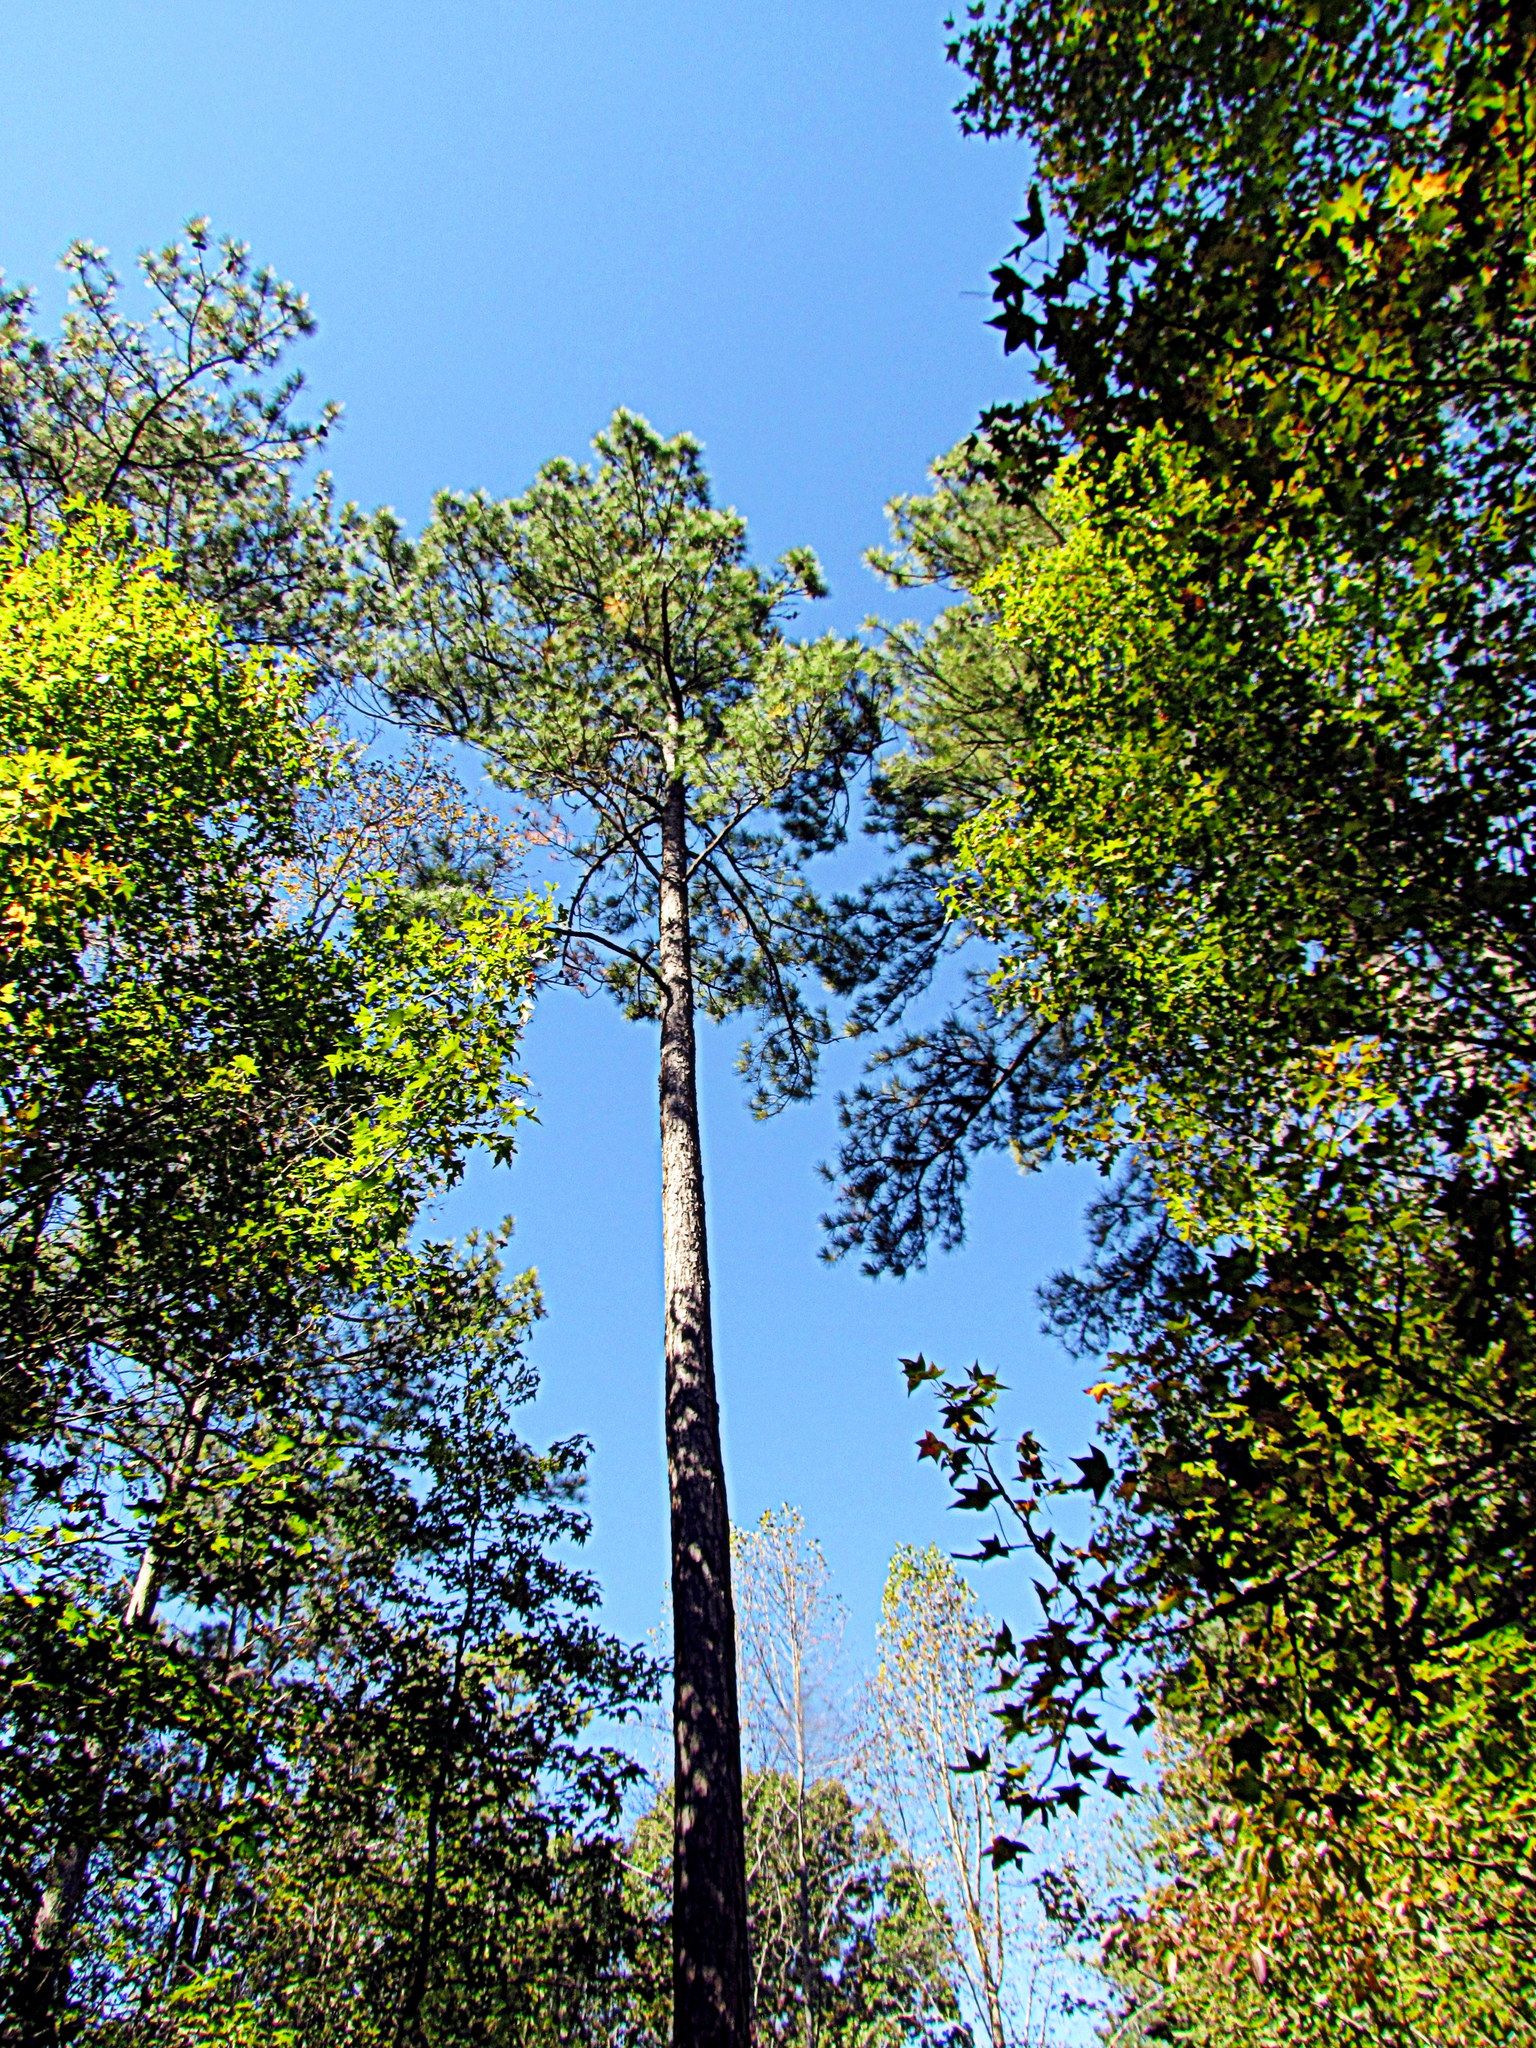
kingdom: Plantae
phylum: Tracheophyta
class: Pinopsida
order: Pinales
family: Pinaceae
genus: Pinus
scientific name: Pinus taeda
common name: Loblolly pine
